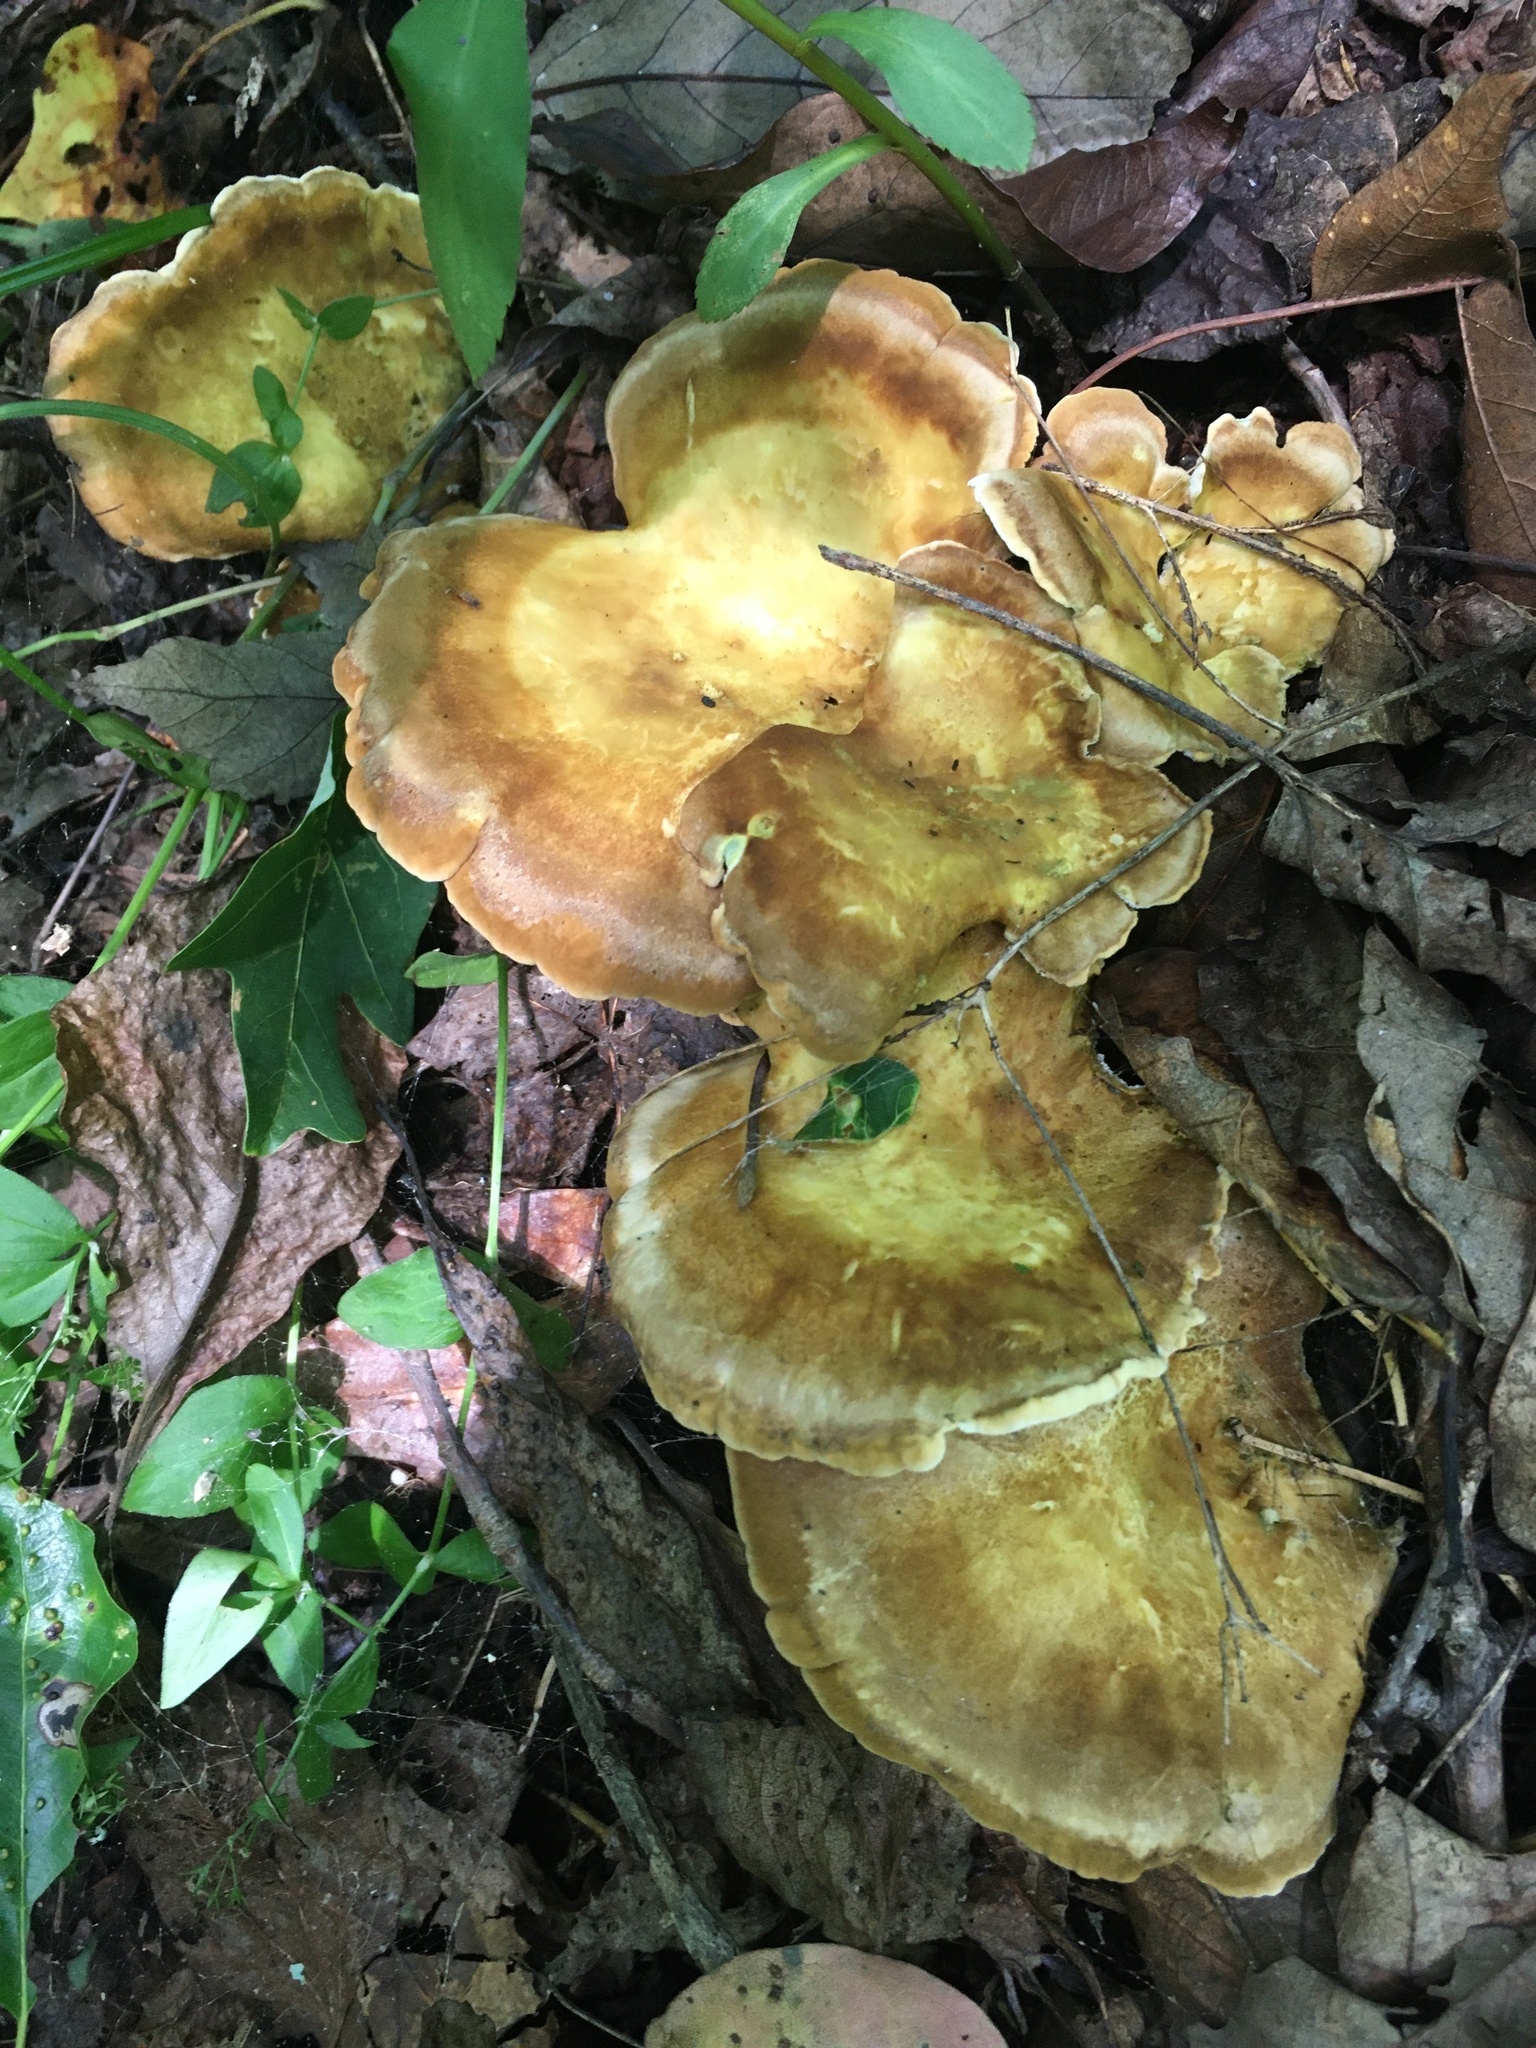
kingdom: Fungi
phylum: Basidiomycota
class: Agaricomycetes
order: Russulales
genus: Laeticutis
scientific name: Laeticutis cristata
